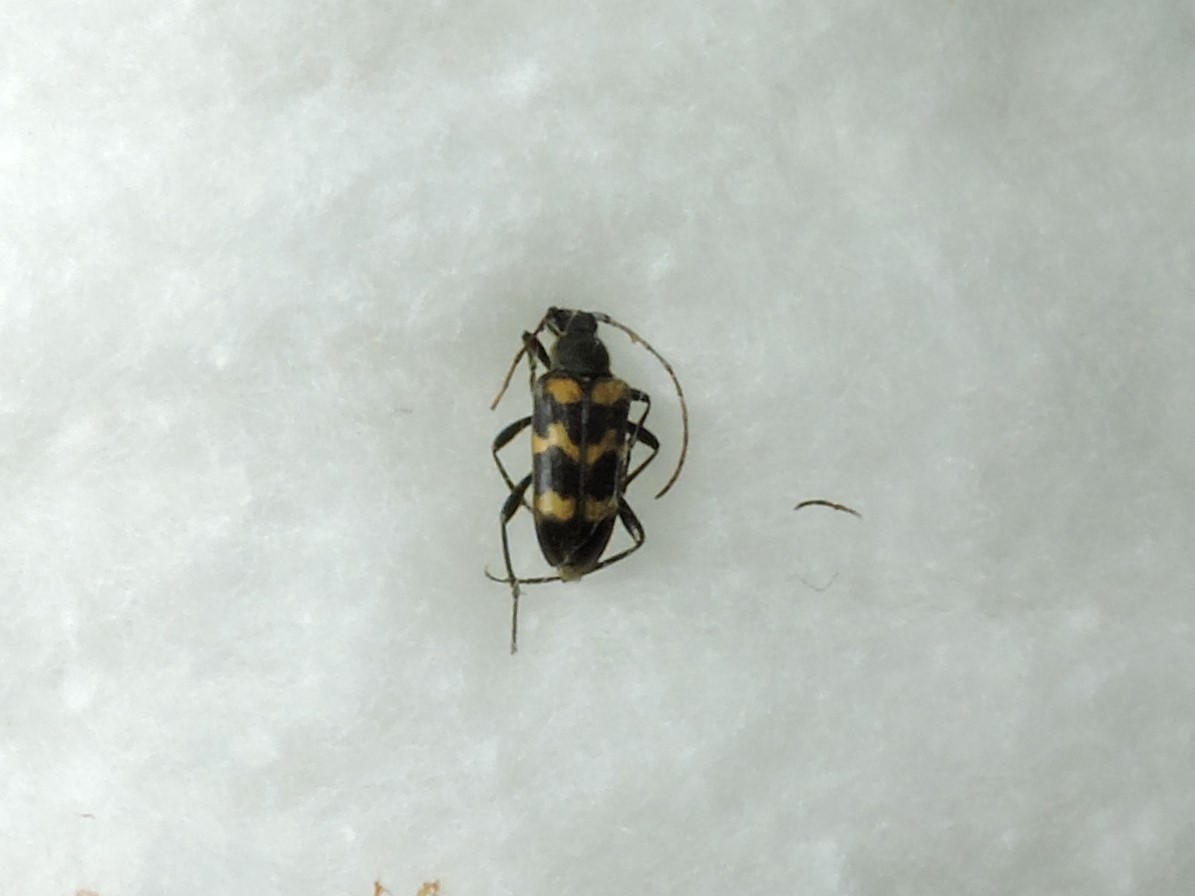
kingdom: Animalia
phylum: Arthropoda
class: Insecta
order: Coleoptera
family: Cerambycidae
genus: Judolia
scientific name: Judolia sexmaculata
